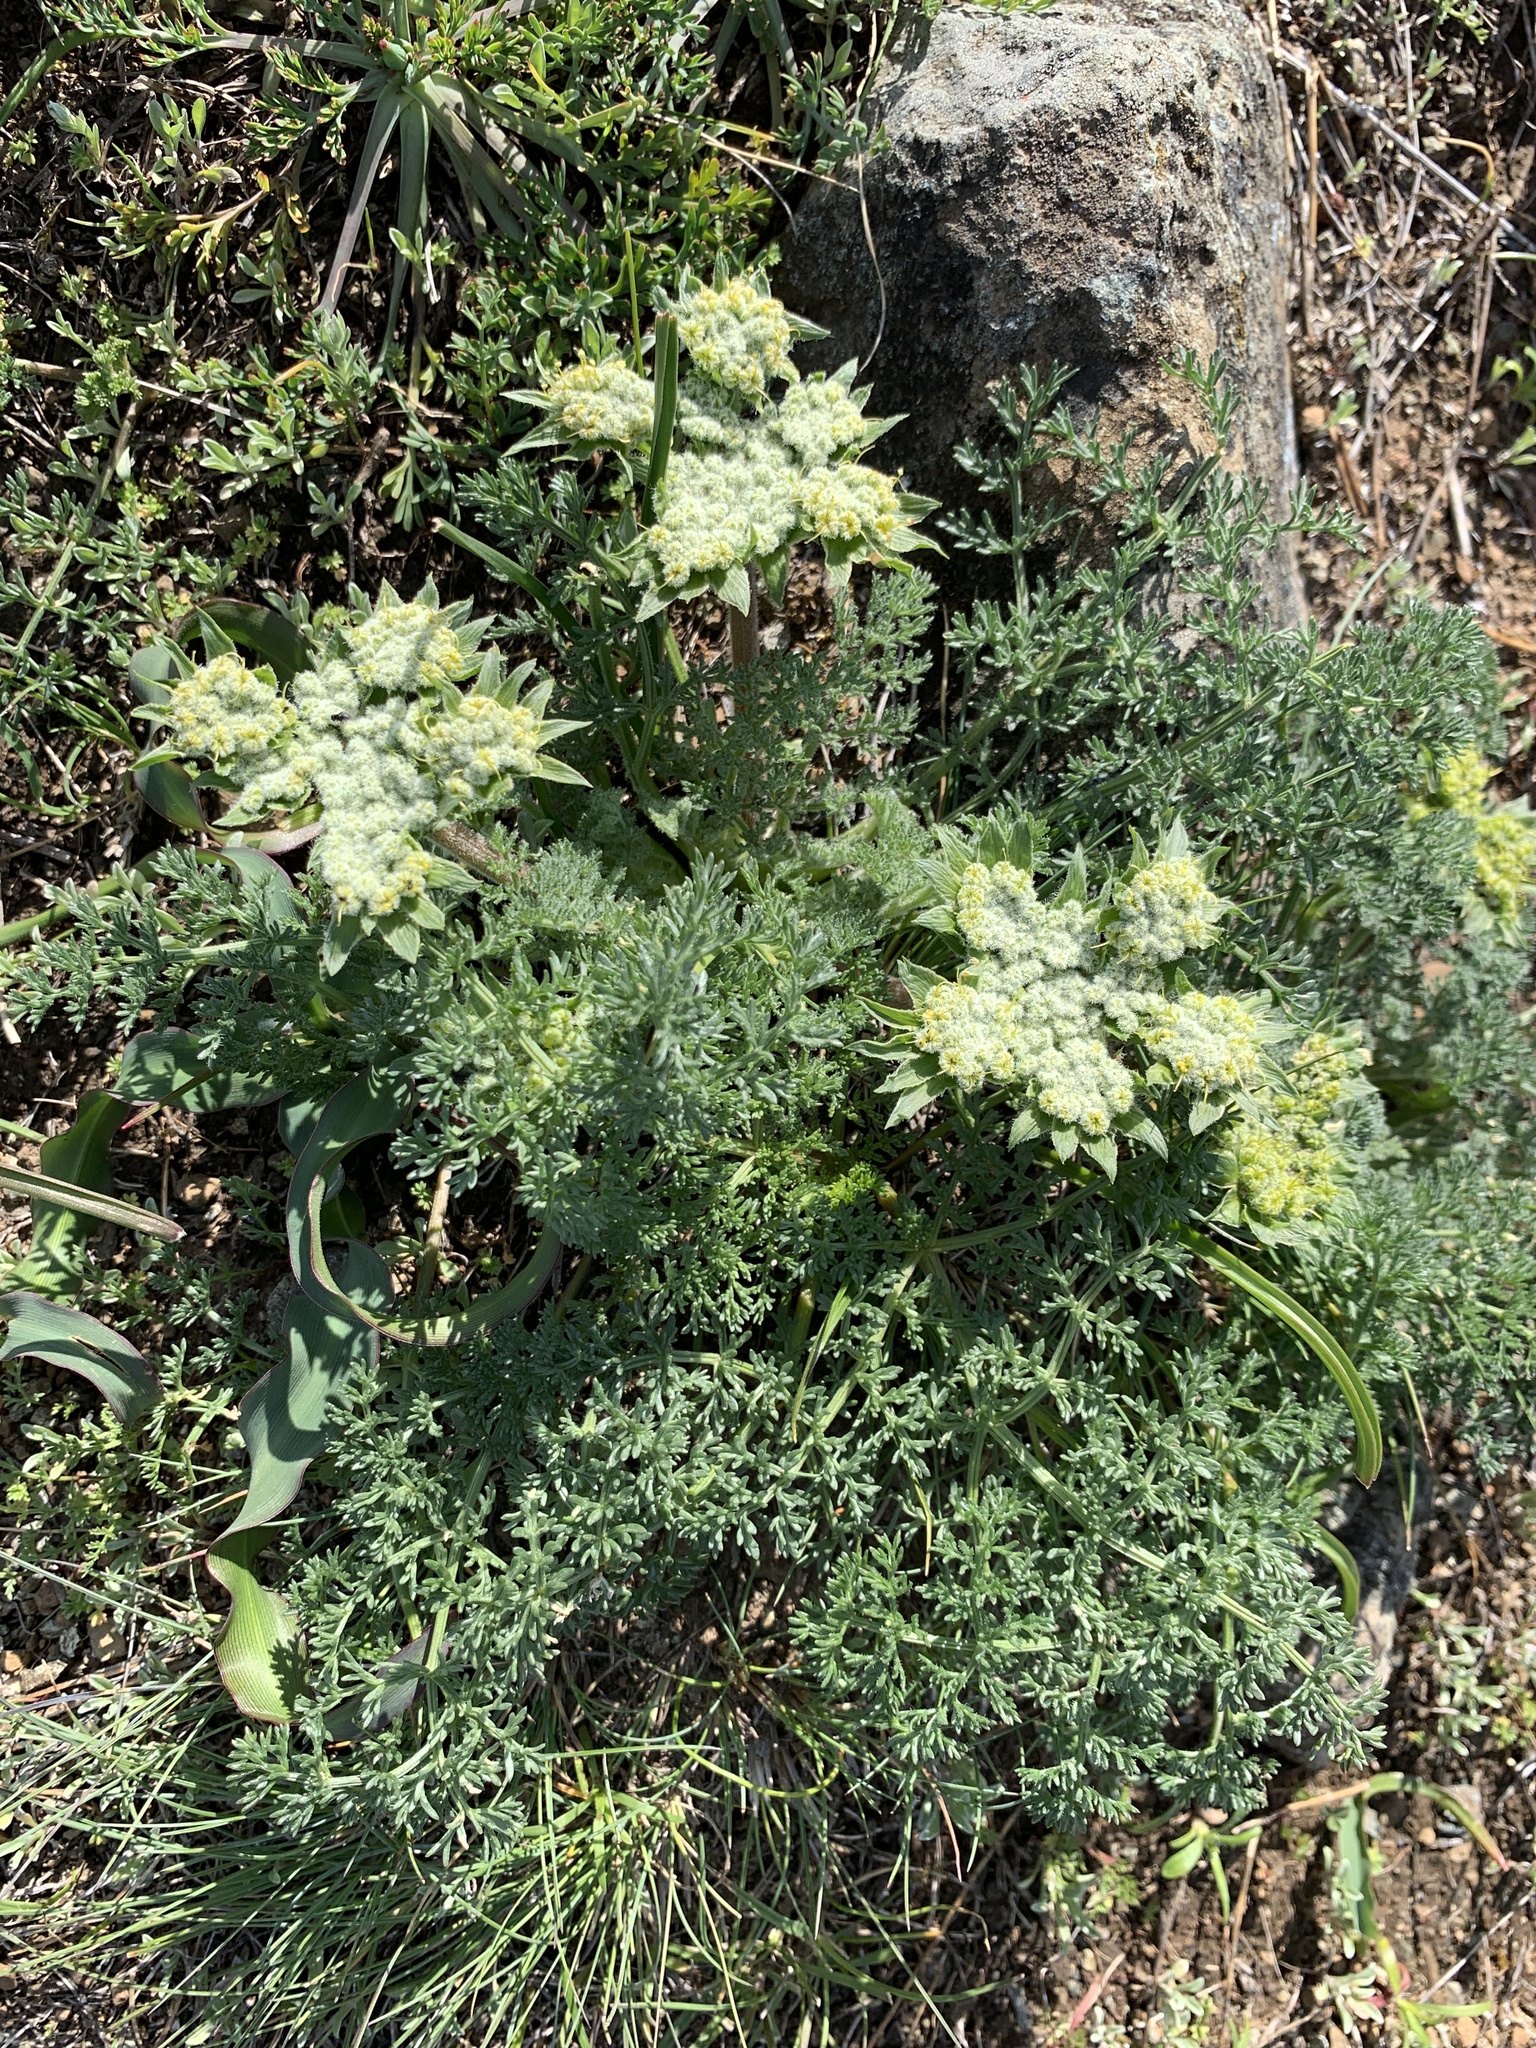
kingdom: Plantae
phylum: Tracheophyta
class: Magnoliopsida
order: Apiales
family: Apiaceae
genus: Lomatium
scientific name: Lomatium dasycarpum
